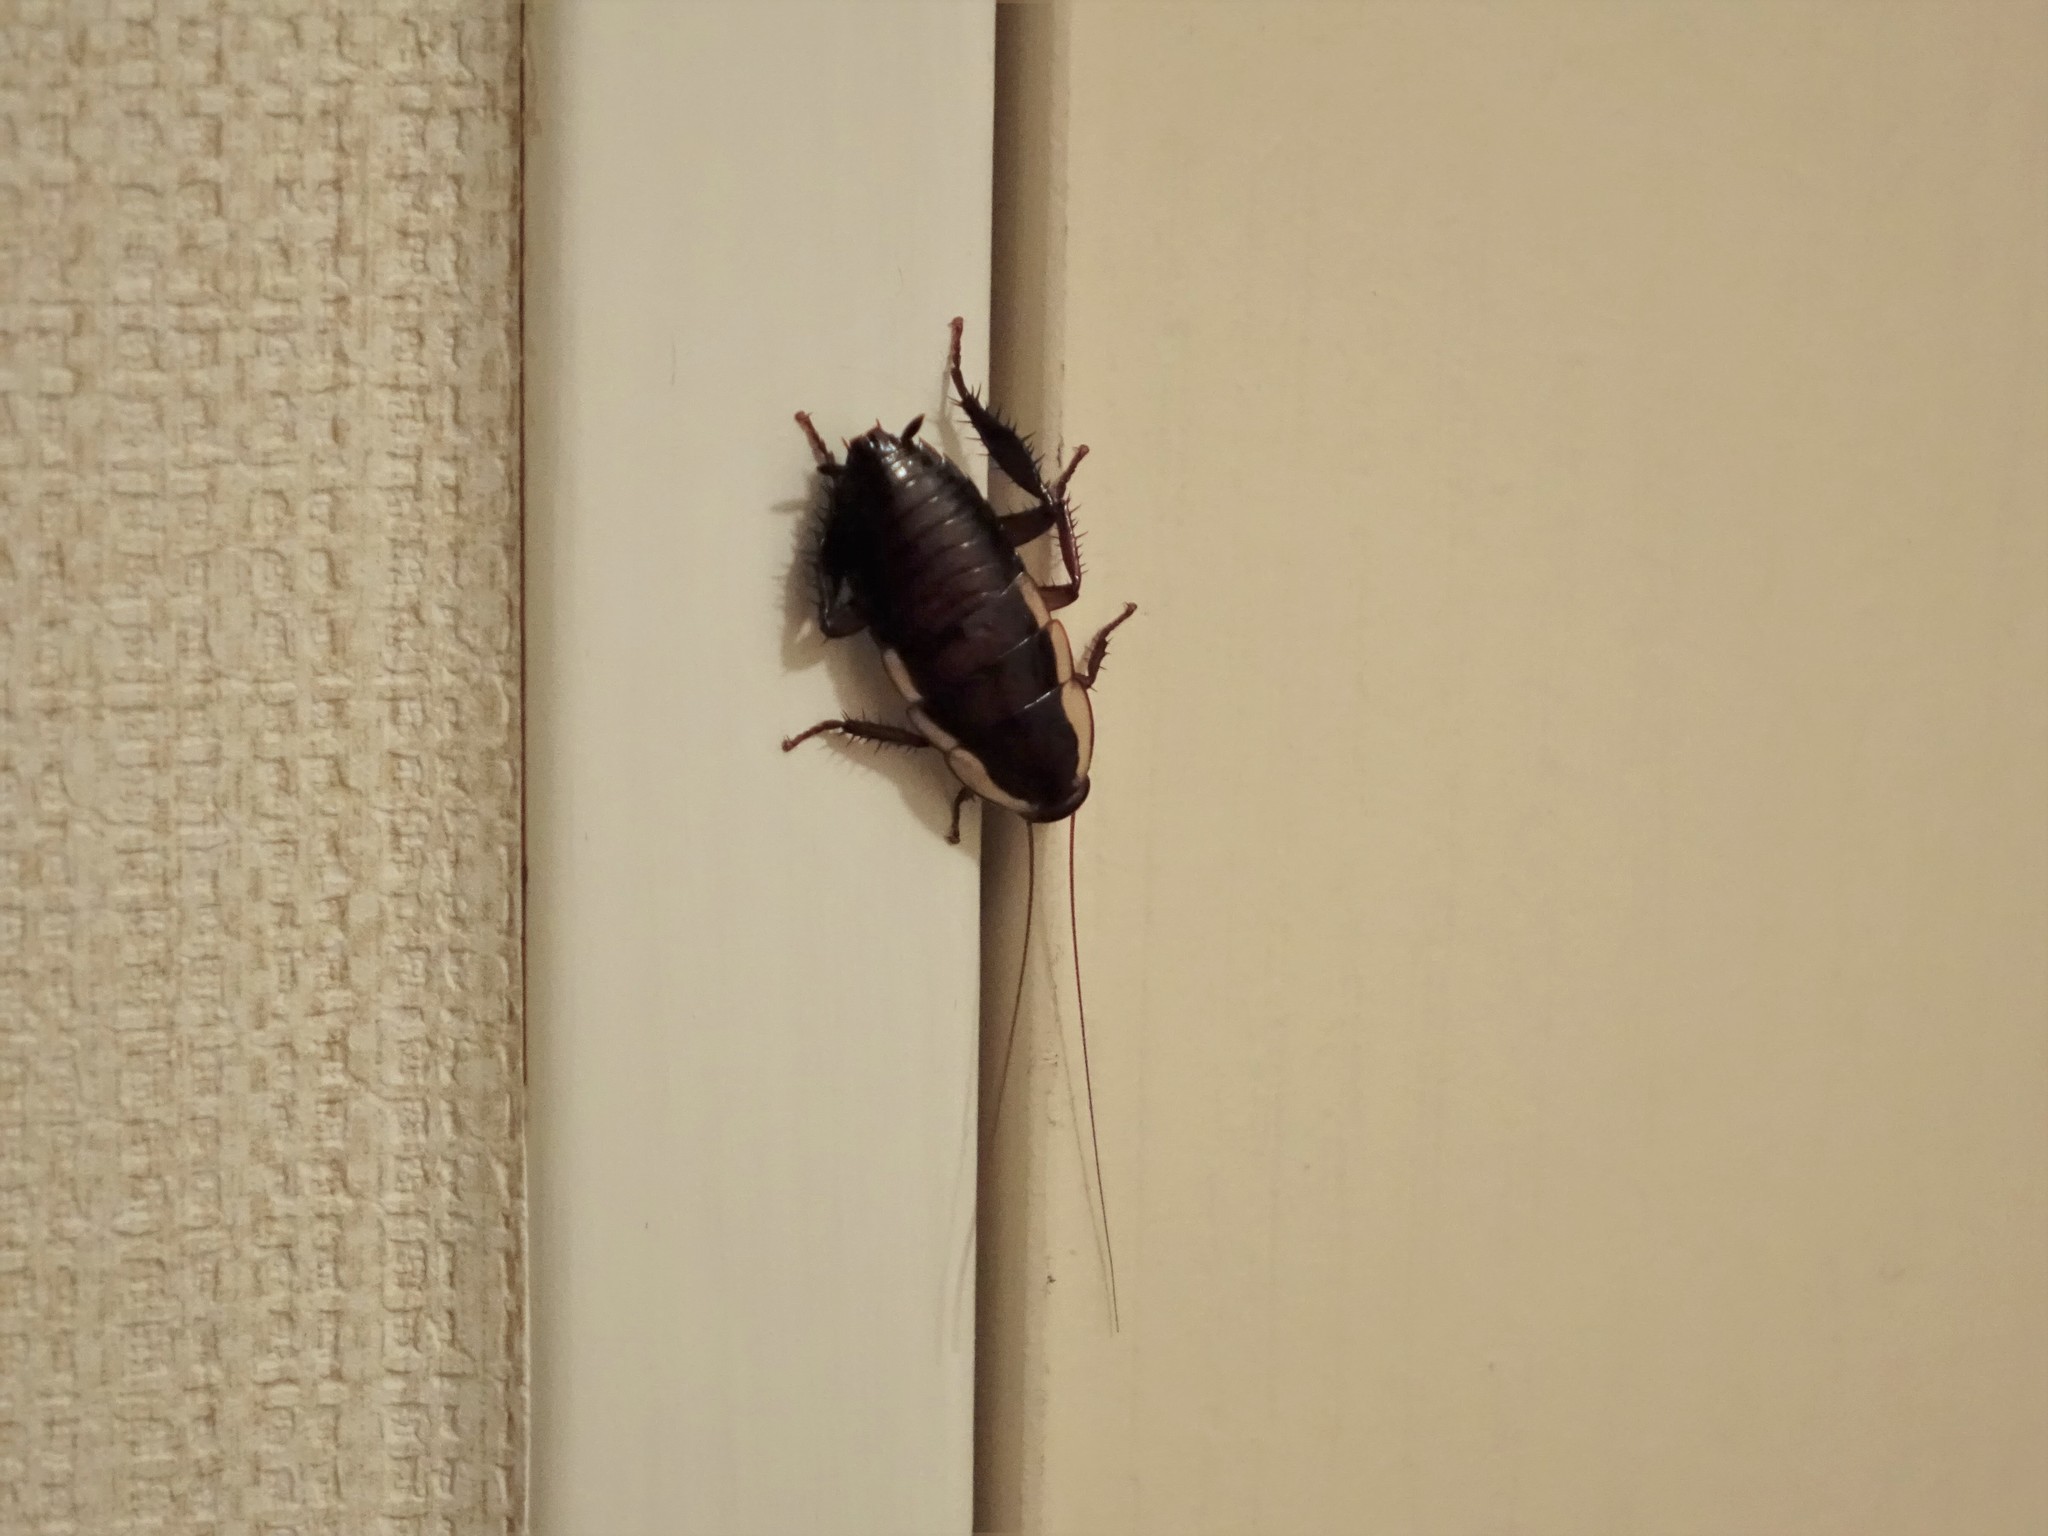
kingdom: Animalia
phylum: Arthropoda
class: Insecta
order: Blattodea
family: Blattidae
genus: Drymaplaneta
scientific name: Drymaplaneta semivitta
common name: Gisborne cockroach
